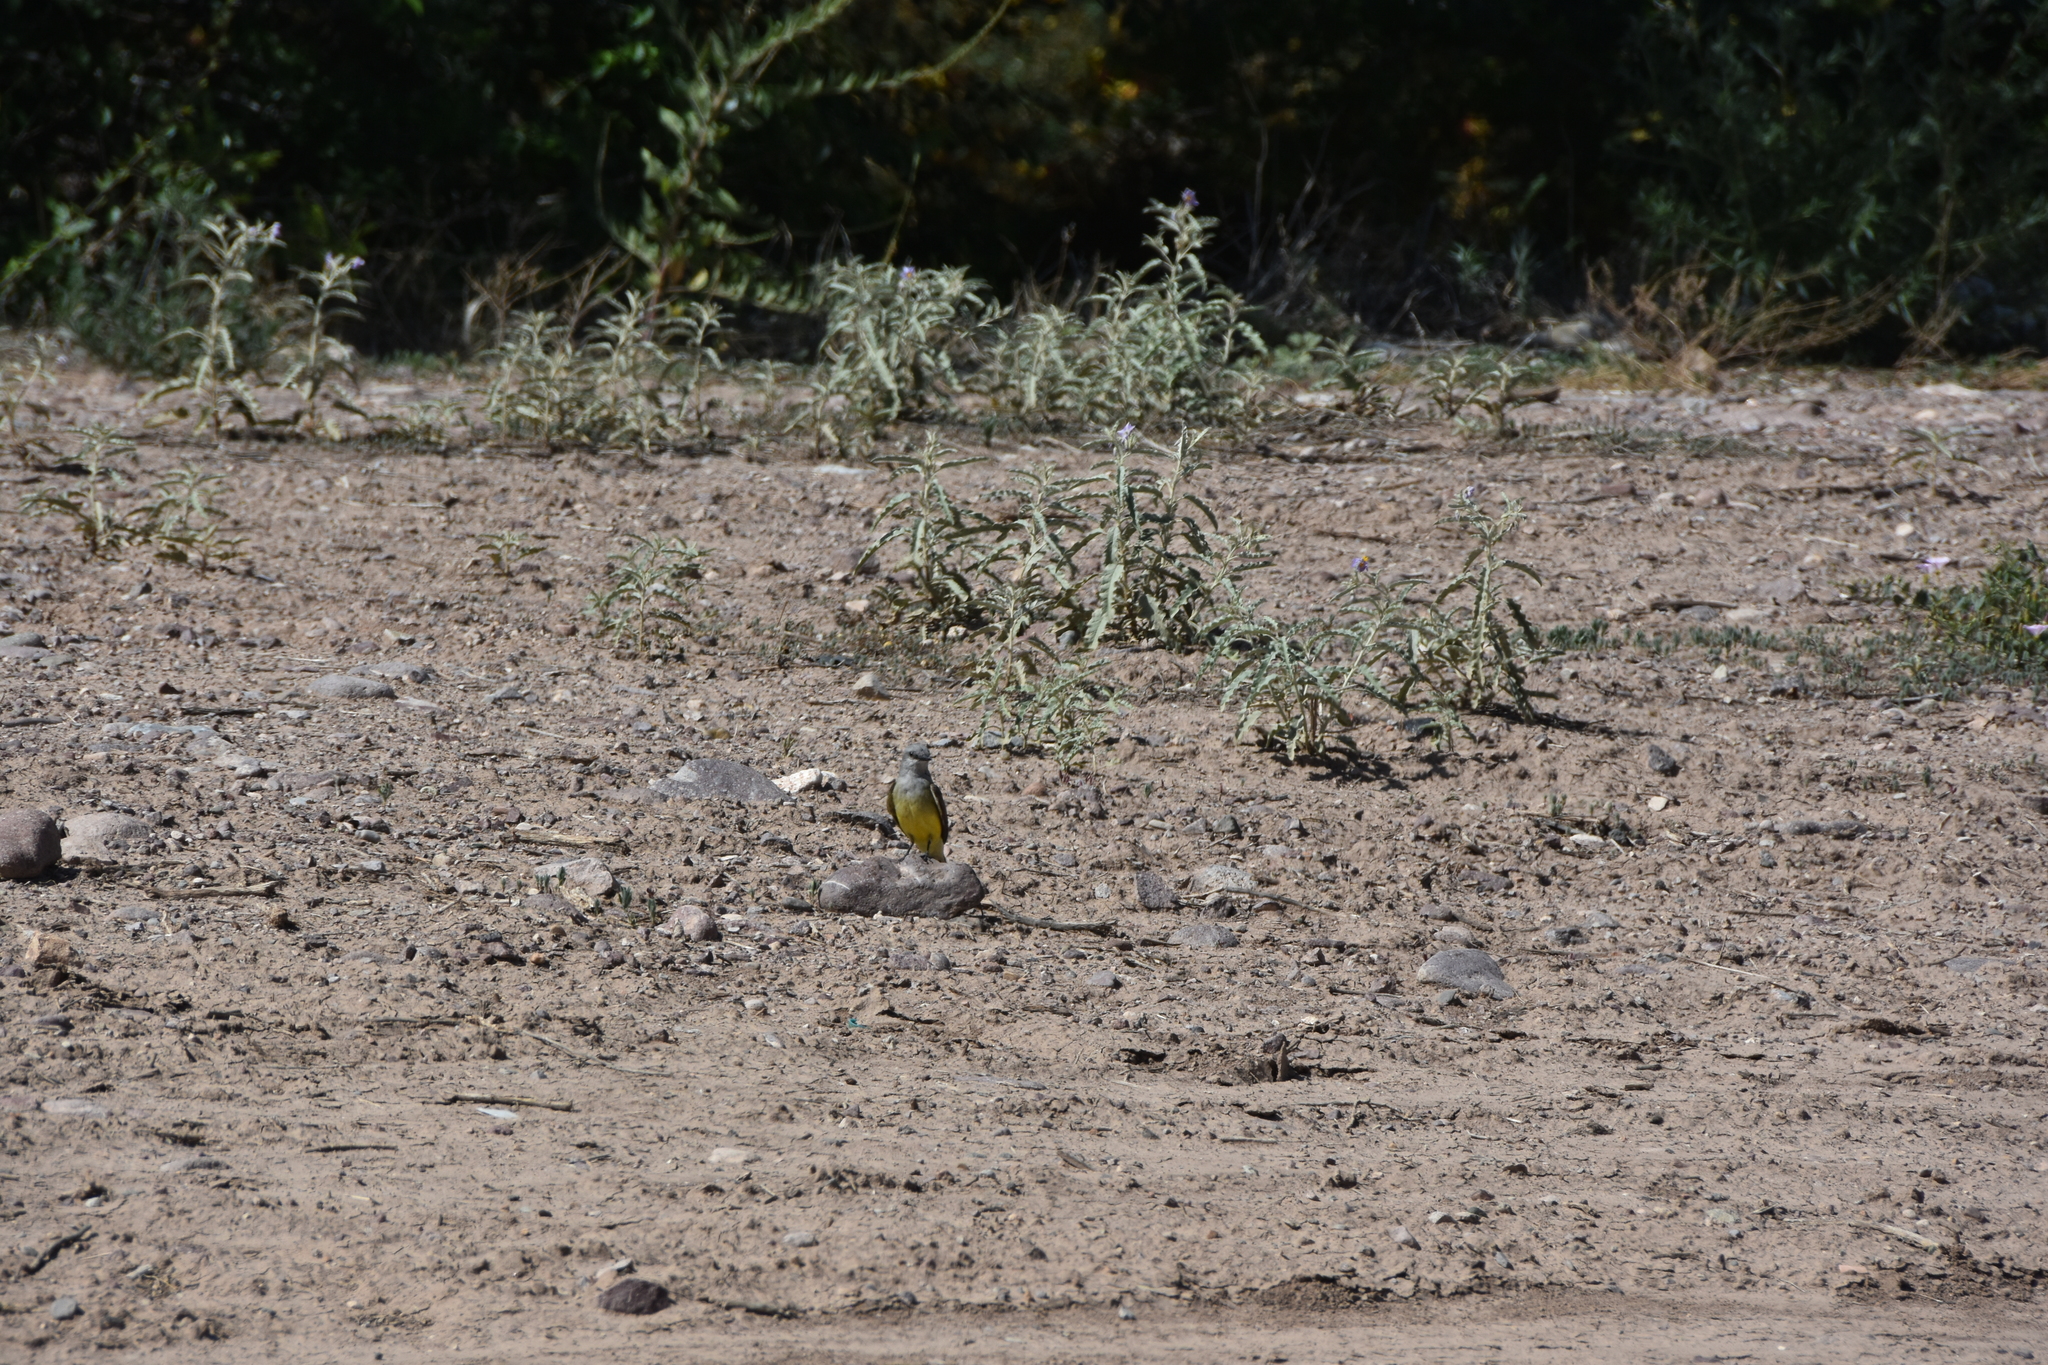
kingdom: Animalia
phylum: Chordata
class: Aves
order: Passeriformes
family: Tyrannidae
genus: Tyrannus
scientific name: Tyrannus verticalis
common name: Western kingbird
